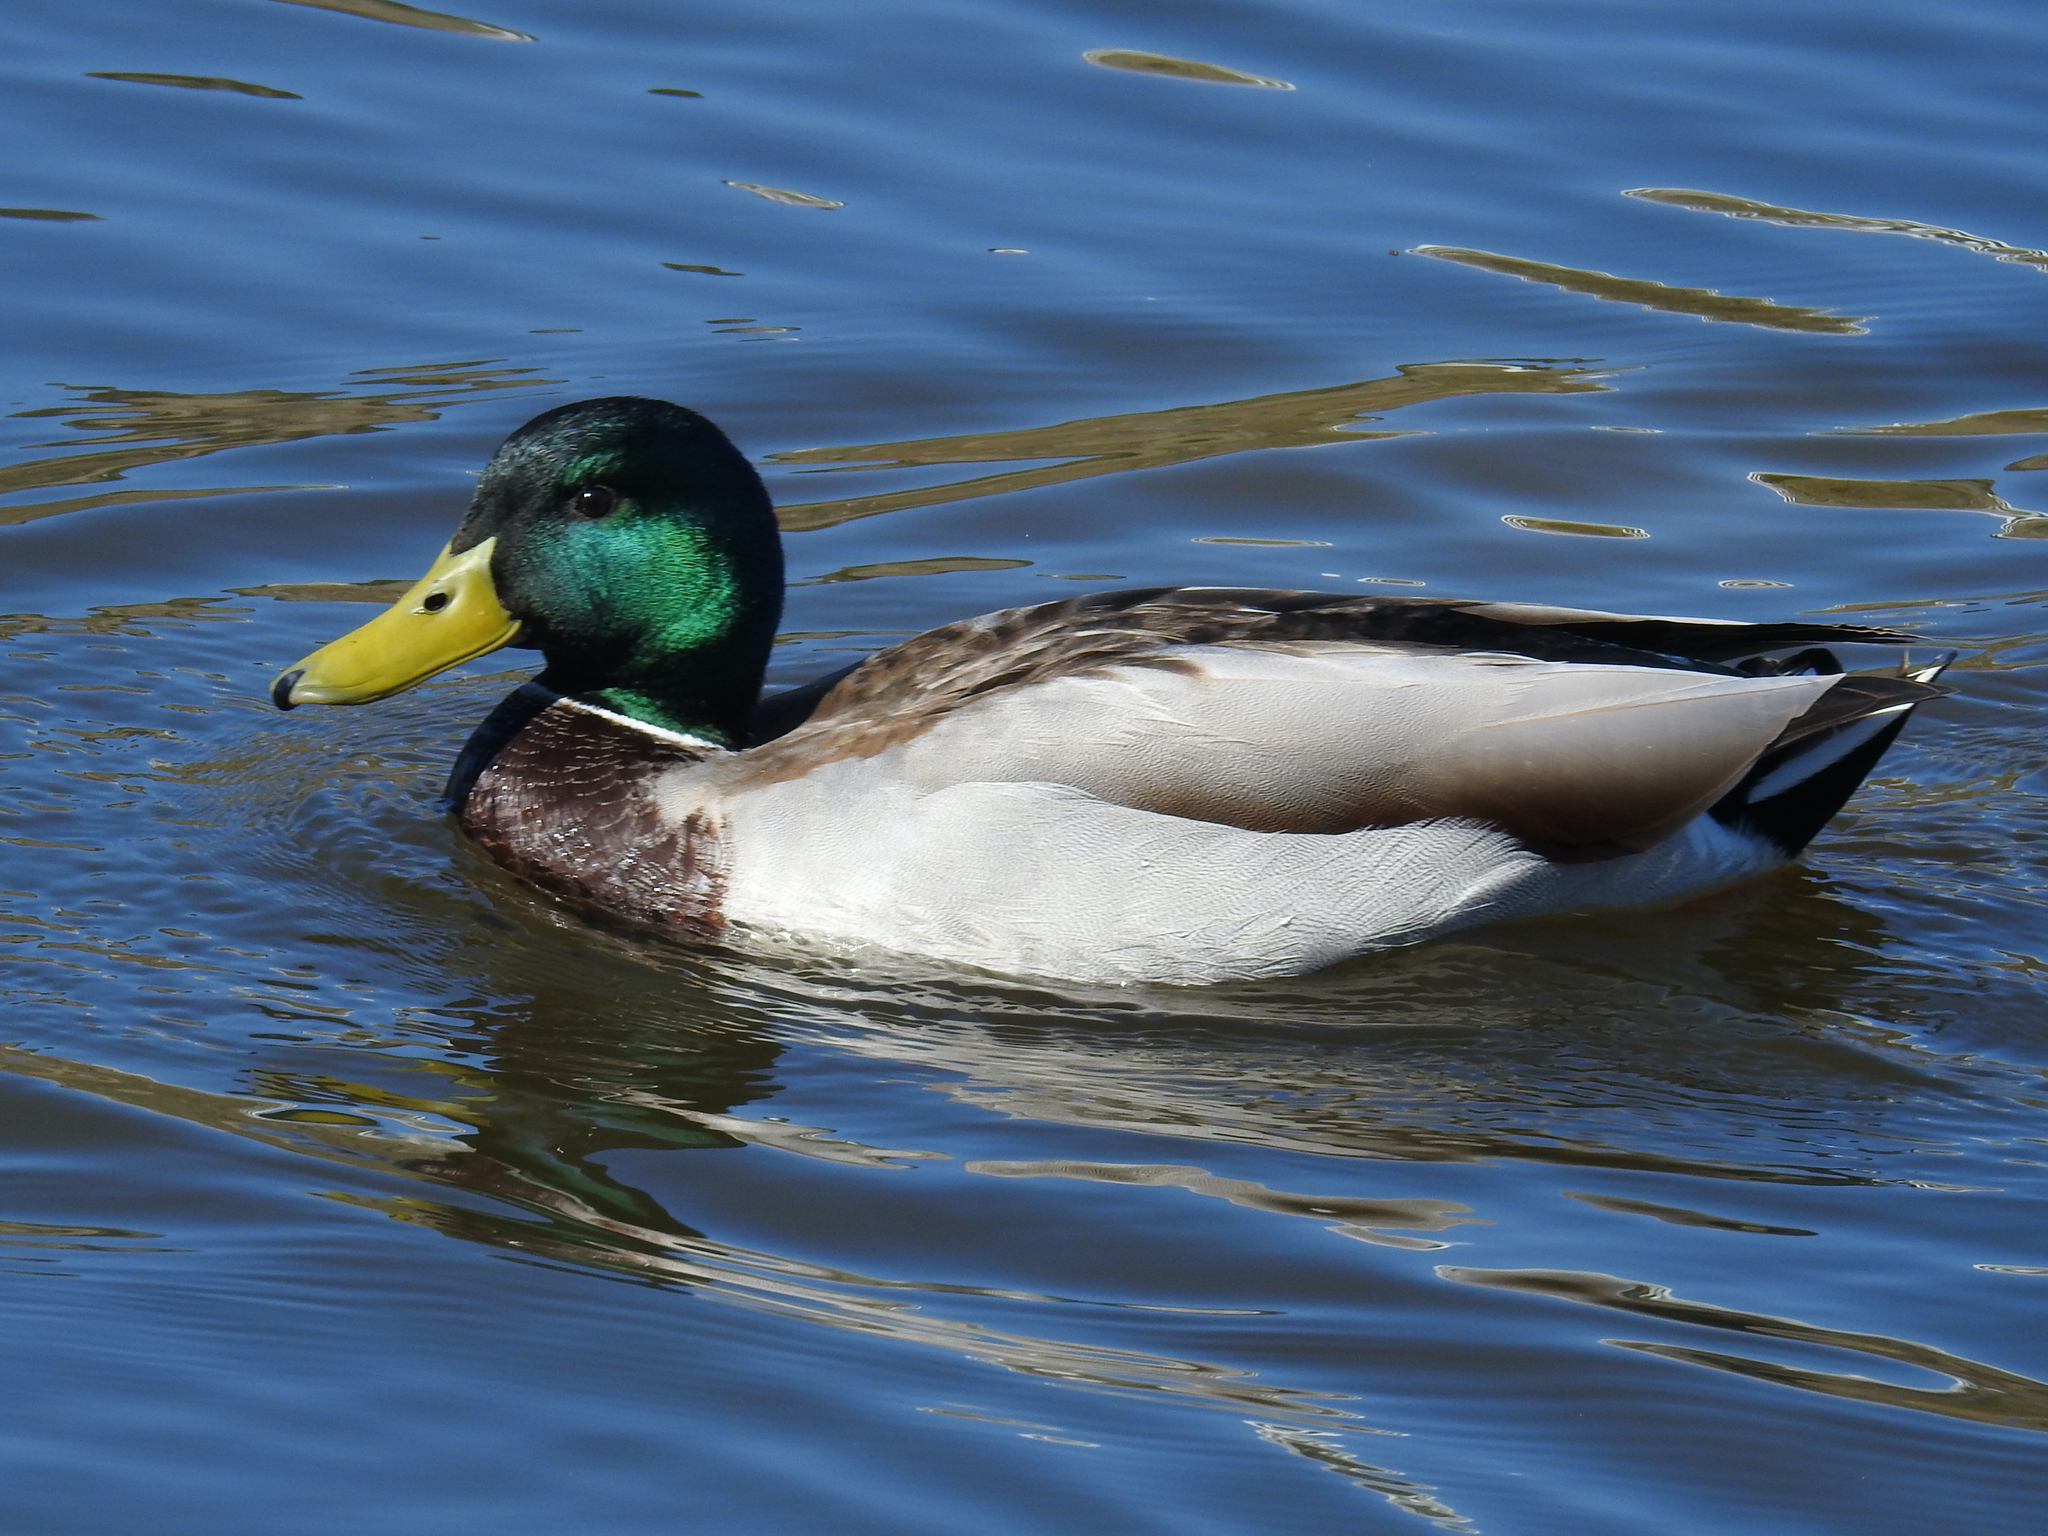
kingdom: Animalia
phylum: Chordata
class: Aves
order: Anseriformes
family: Anatidae
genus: Anas
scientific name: Anas platyrhynchos
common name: Mallard
